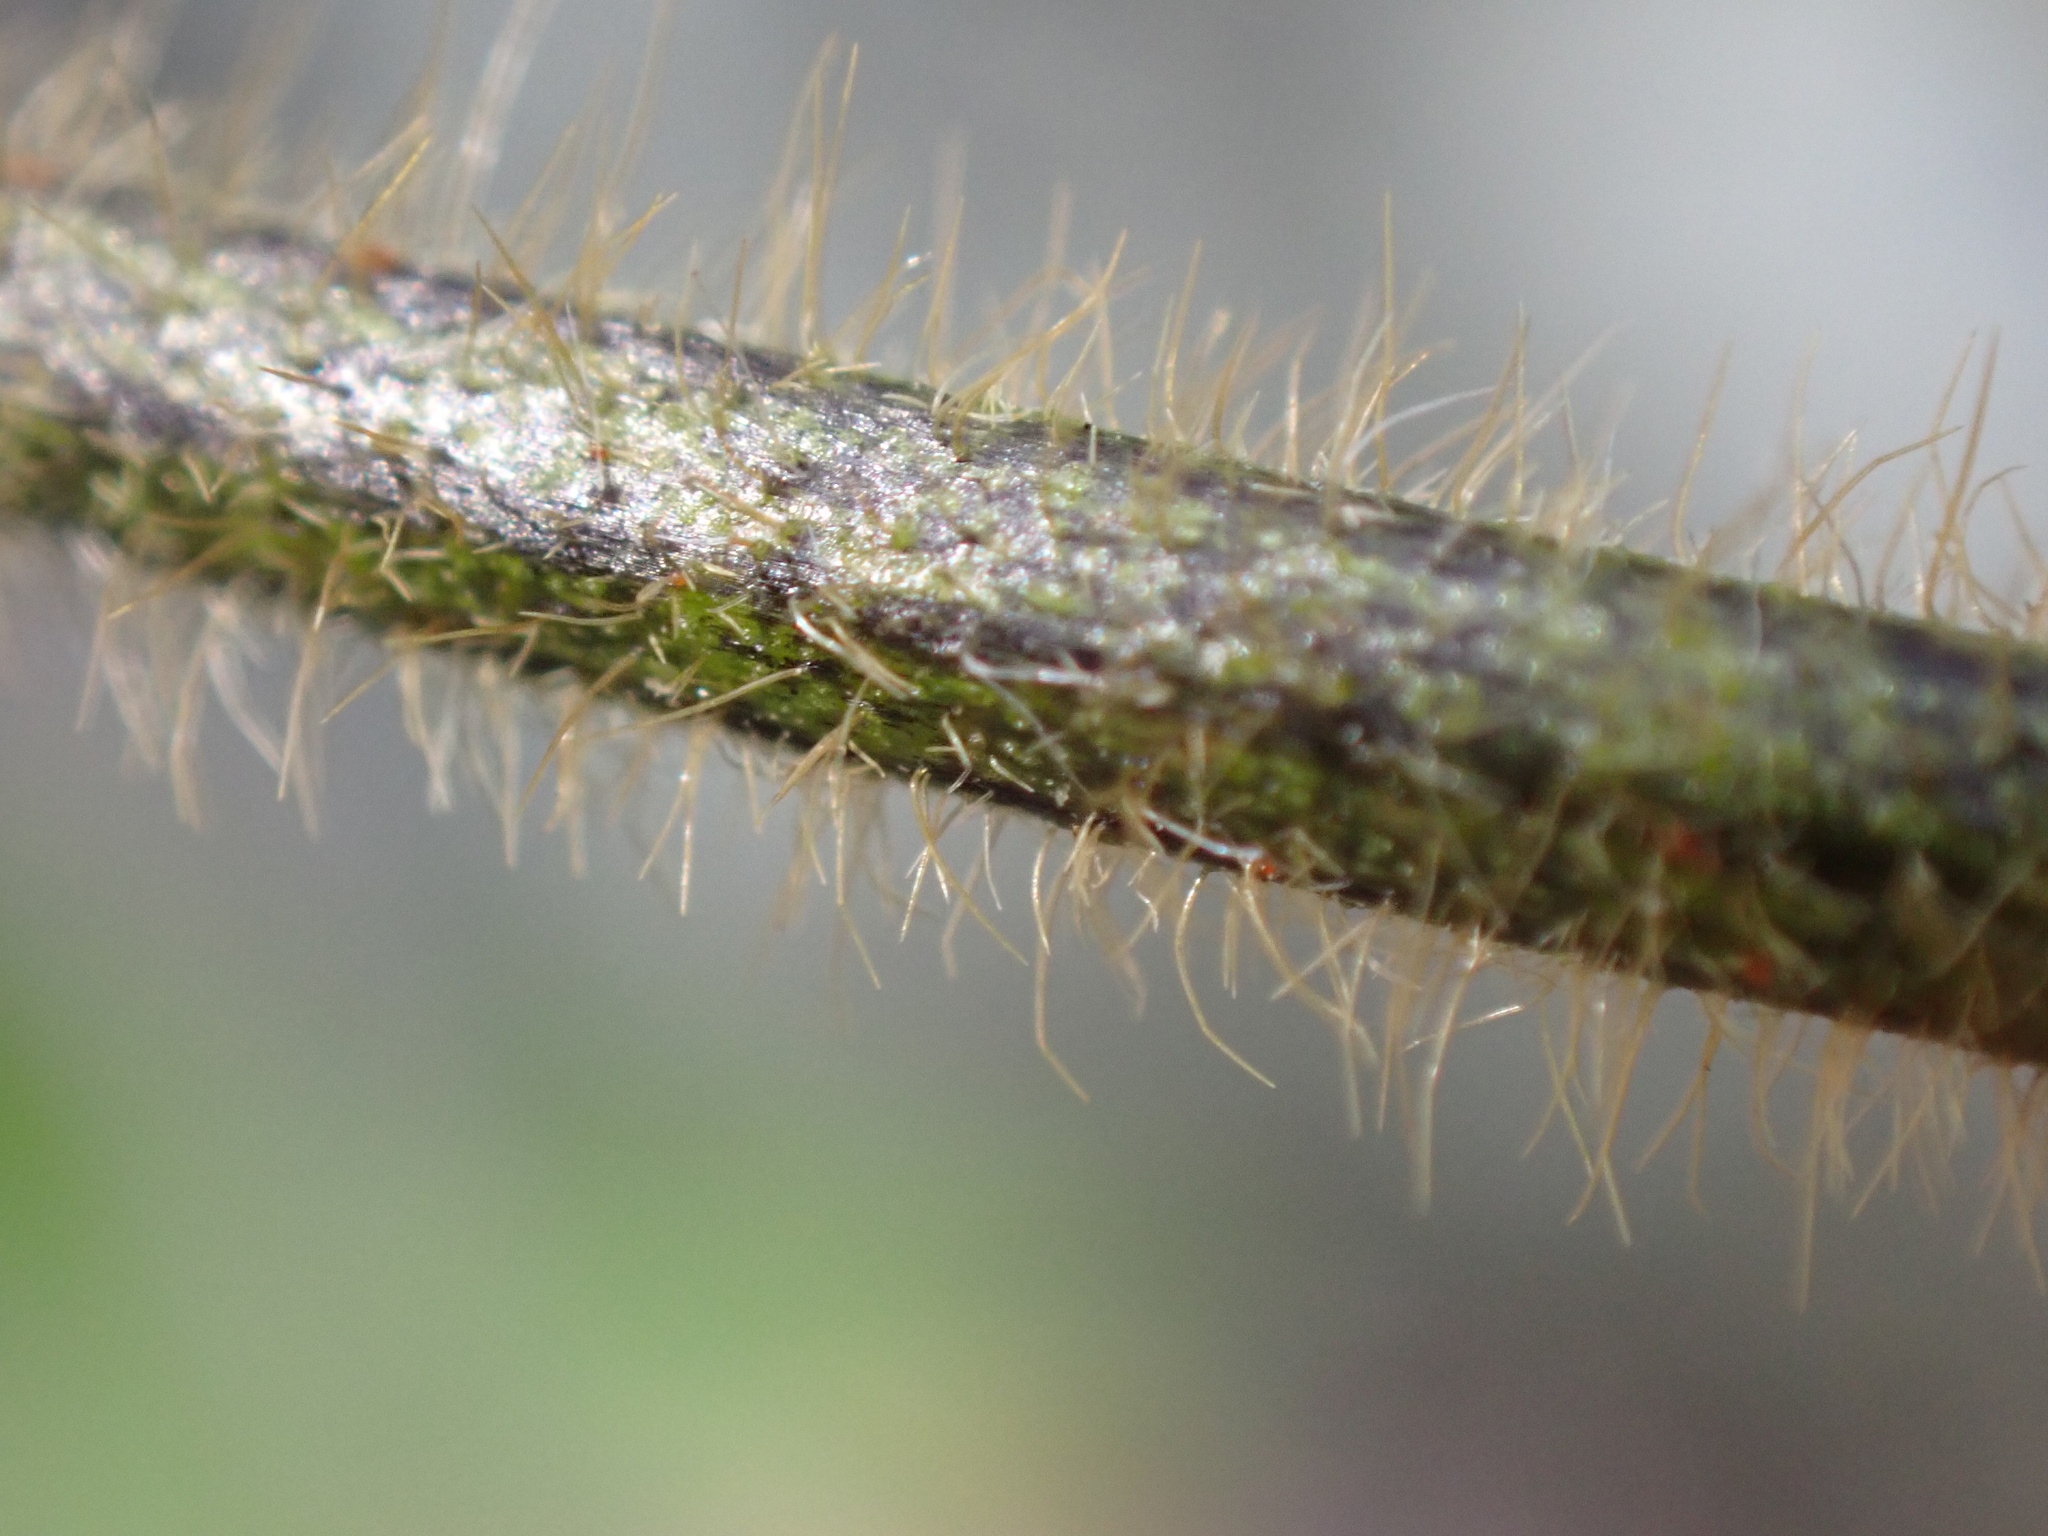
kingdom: Plantae
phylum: Tracheophyta
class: Magnoliopsida
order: Fabales
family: Fabaceae
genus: Calopogonium
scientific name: Calopogonium mucunoides
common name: Calopo
